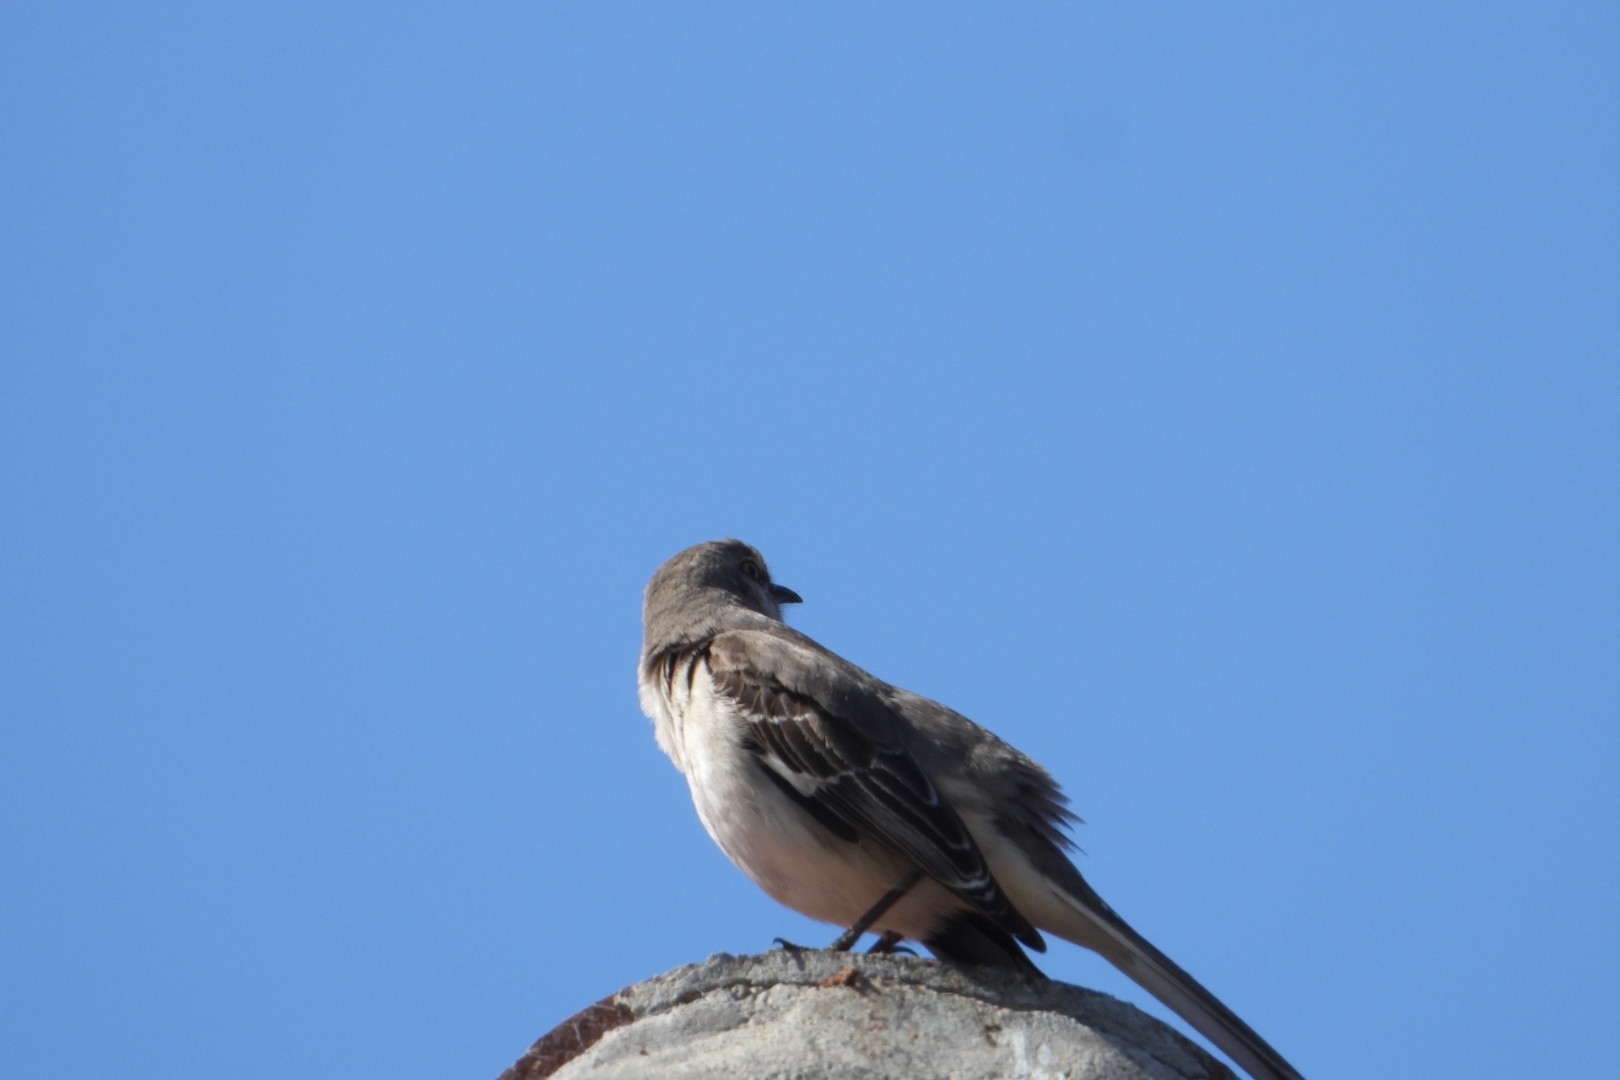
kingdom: Animalia
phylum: Chordata
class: Aves
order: Passeriformes
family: Mimidae
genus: Mimus
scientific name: Mimus polyglottos
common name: Northern mockingbird
